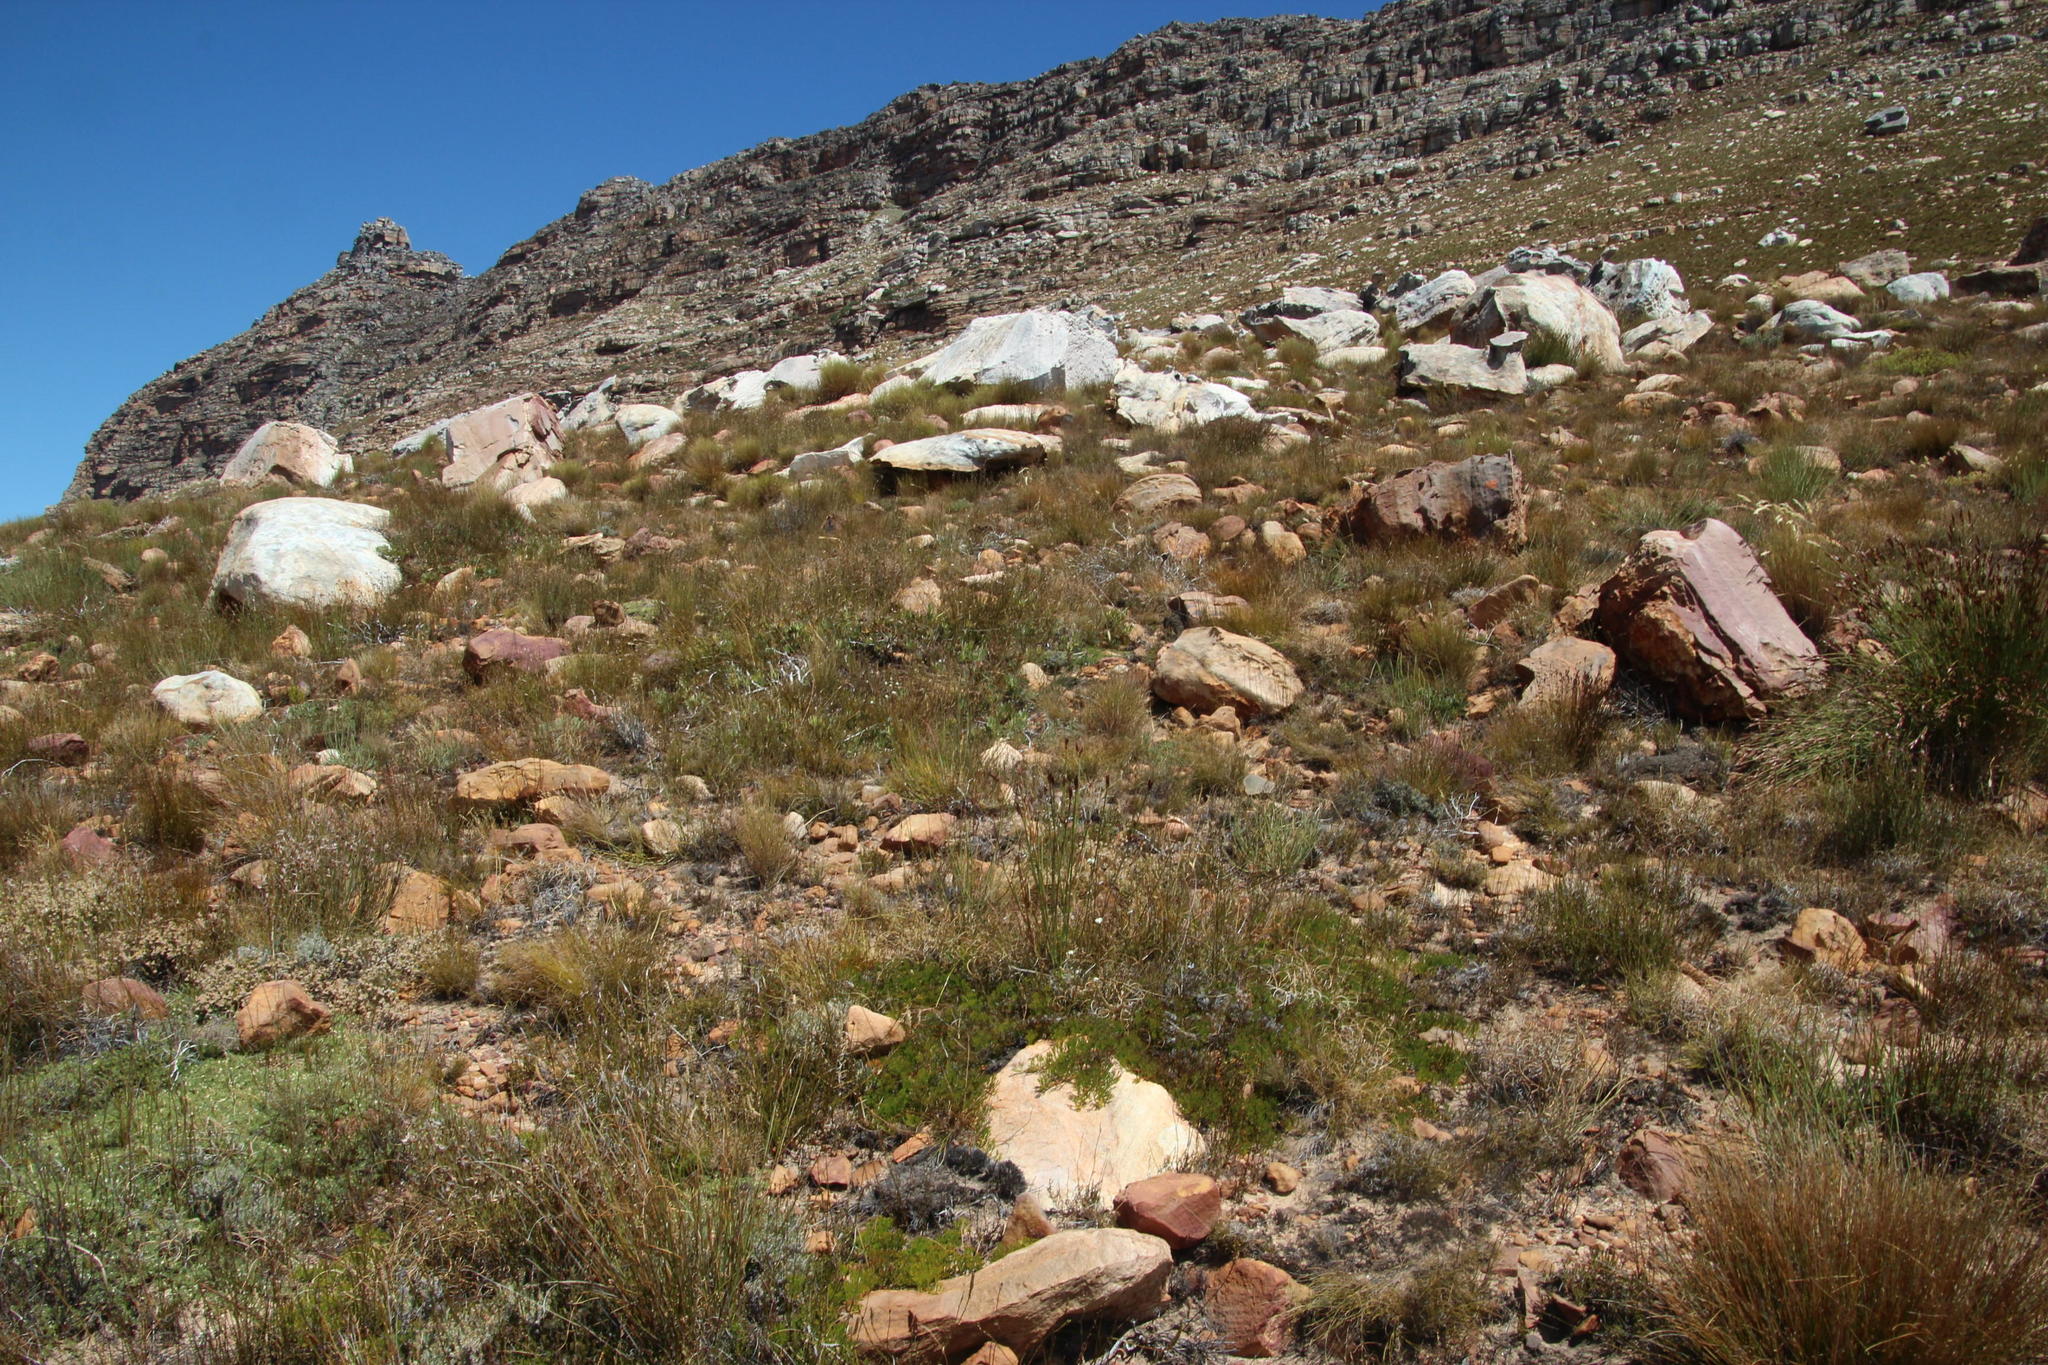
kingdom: Plantae
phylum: Tracheophyta
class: Magnoliopsida
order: Proteales
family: Proteaceae
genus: Serruria
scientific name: Serruria cygnea
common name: Swan spiderhead
